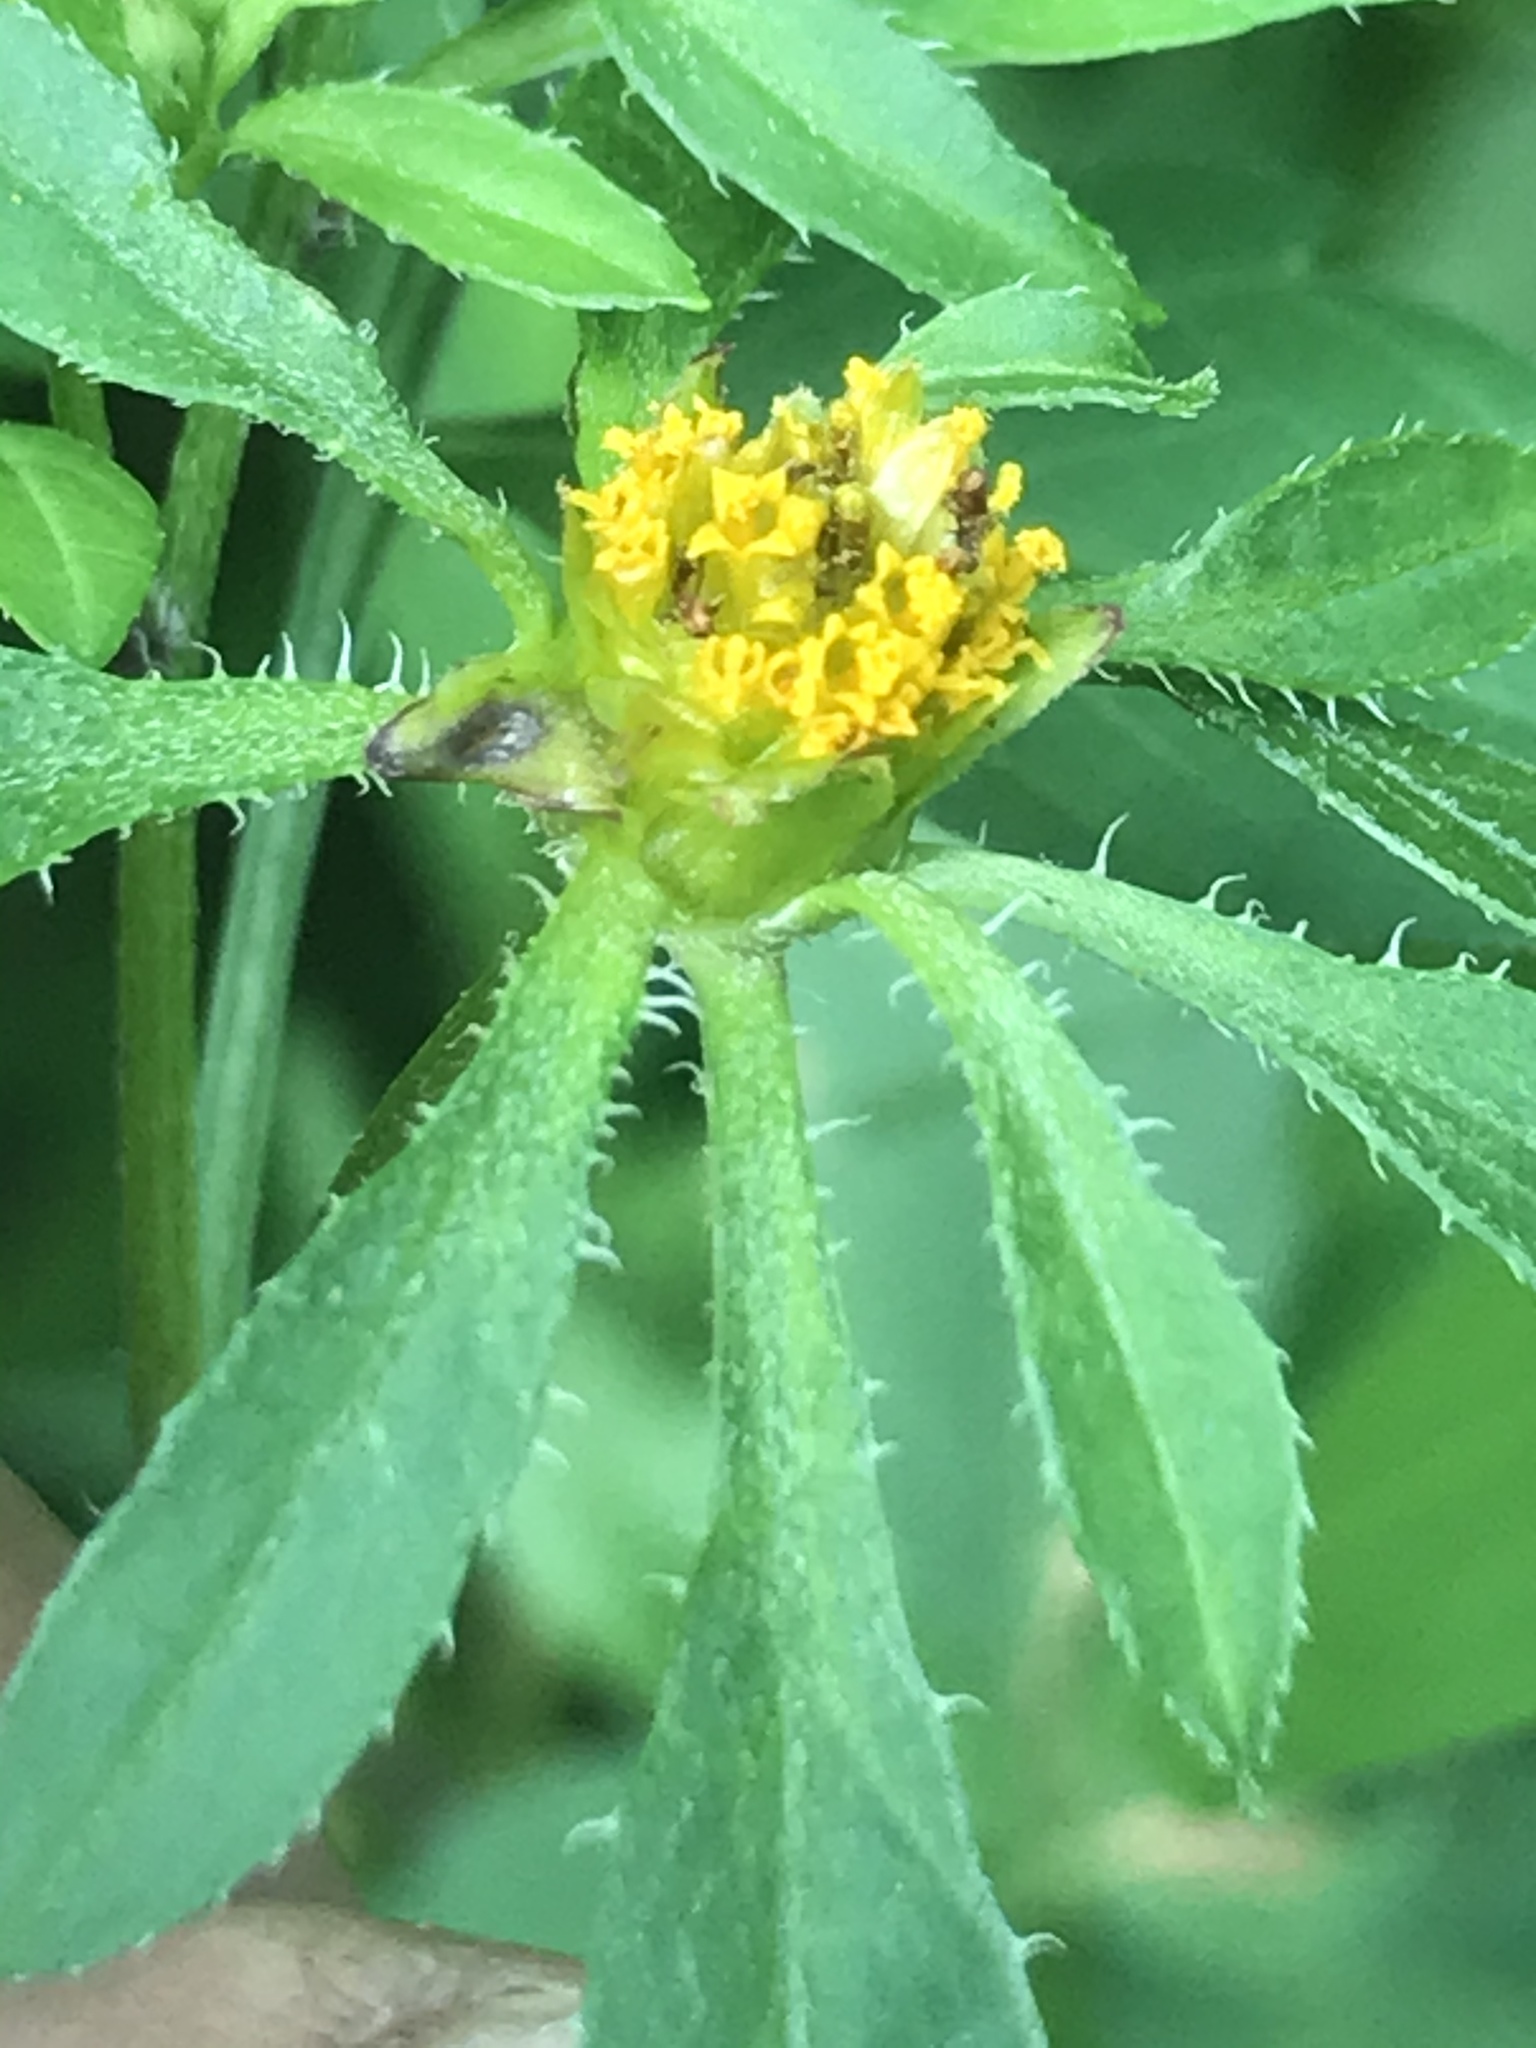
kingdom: Plantae
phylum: Tracheophyta
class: Magnoliopsida
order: Asterales
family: Asteraceae
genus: Bidens
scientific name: Bidens frondosa
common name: Beggarticks
